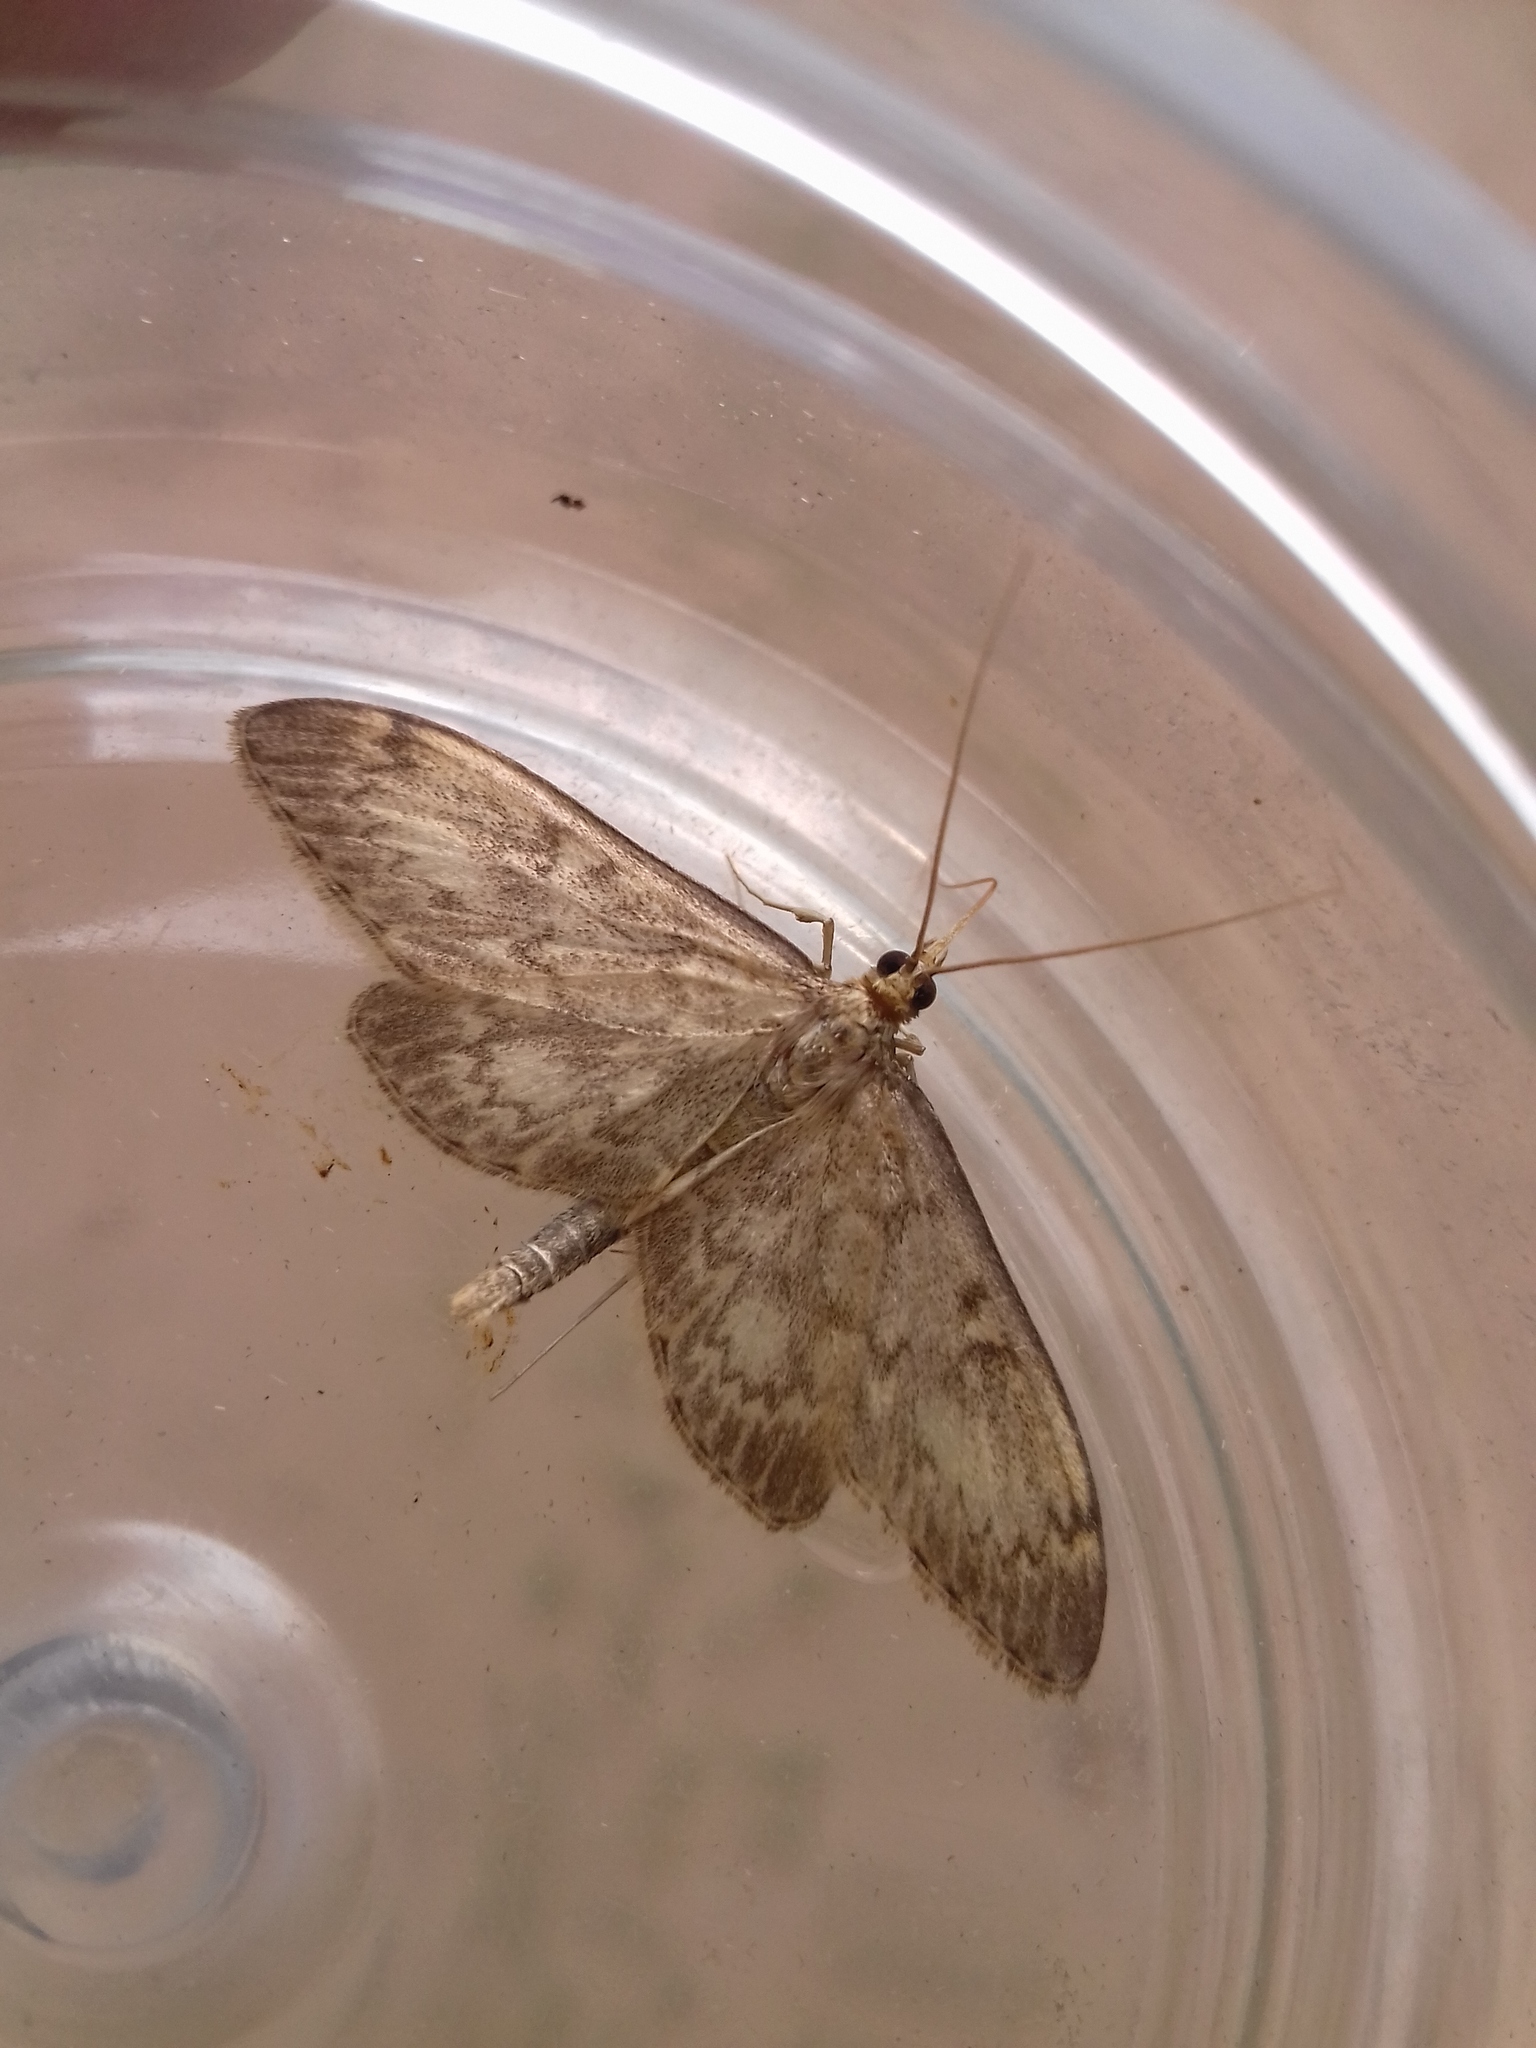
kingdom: Animalia
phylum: Arthropoda
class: Insecta
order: Lepidoptera
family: Crambidae
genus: Anania
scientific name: Anania lancealis
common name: Long-winged pearl
